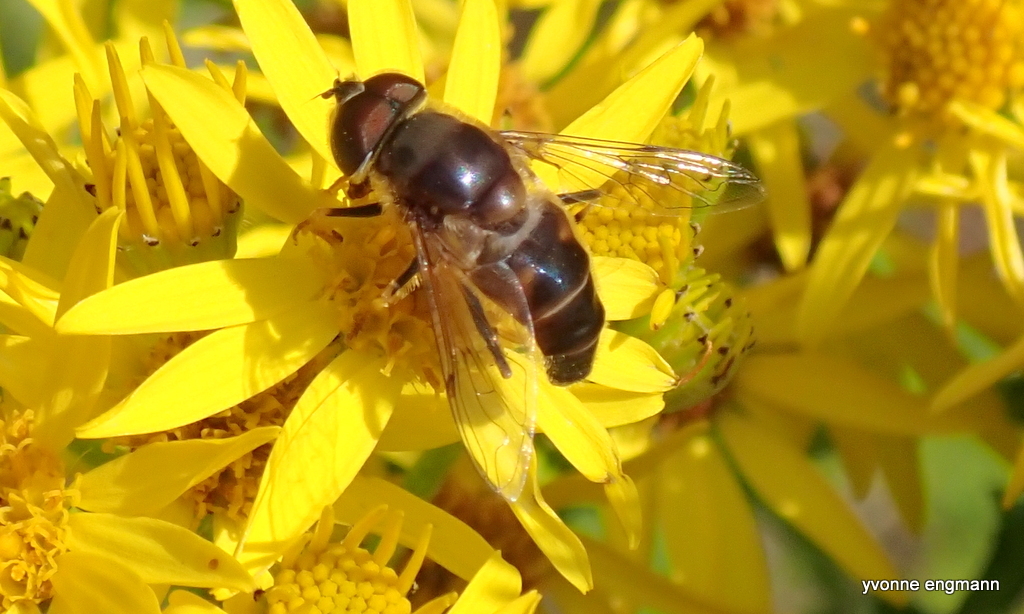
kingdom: Animalia
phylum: Arthropoda
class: Insecta
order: Diptera
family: Syrphidae
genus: Eristalis
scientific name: Eristalis pertinax
